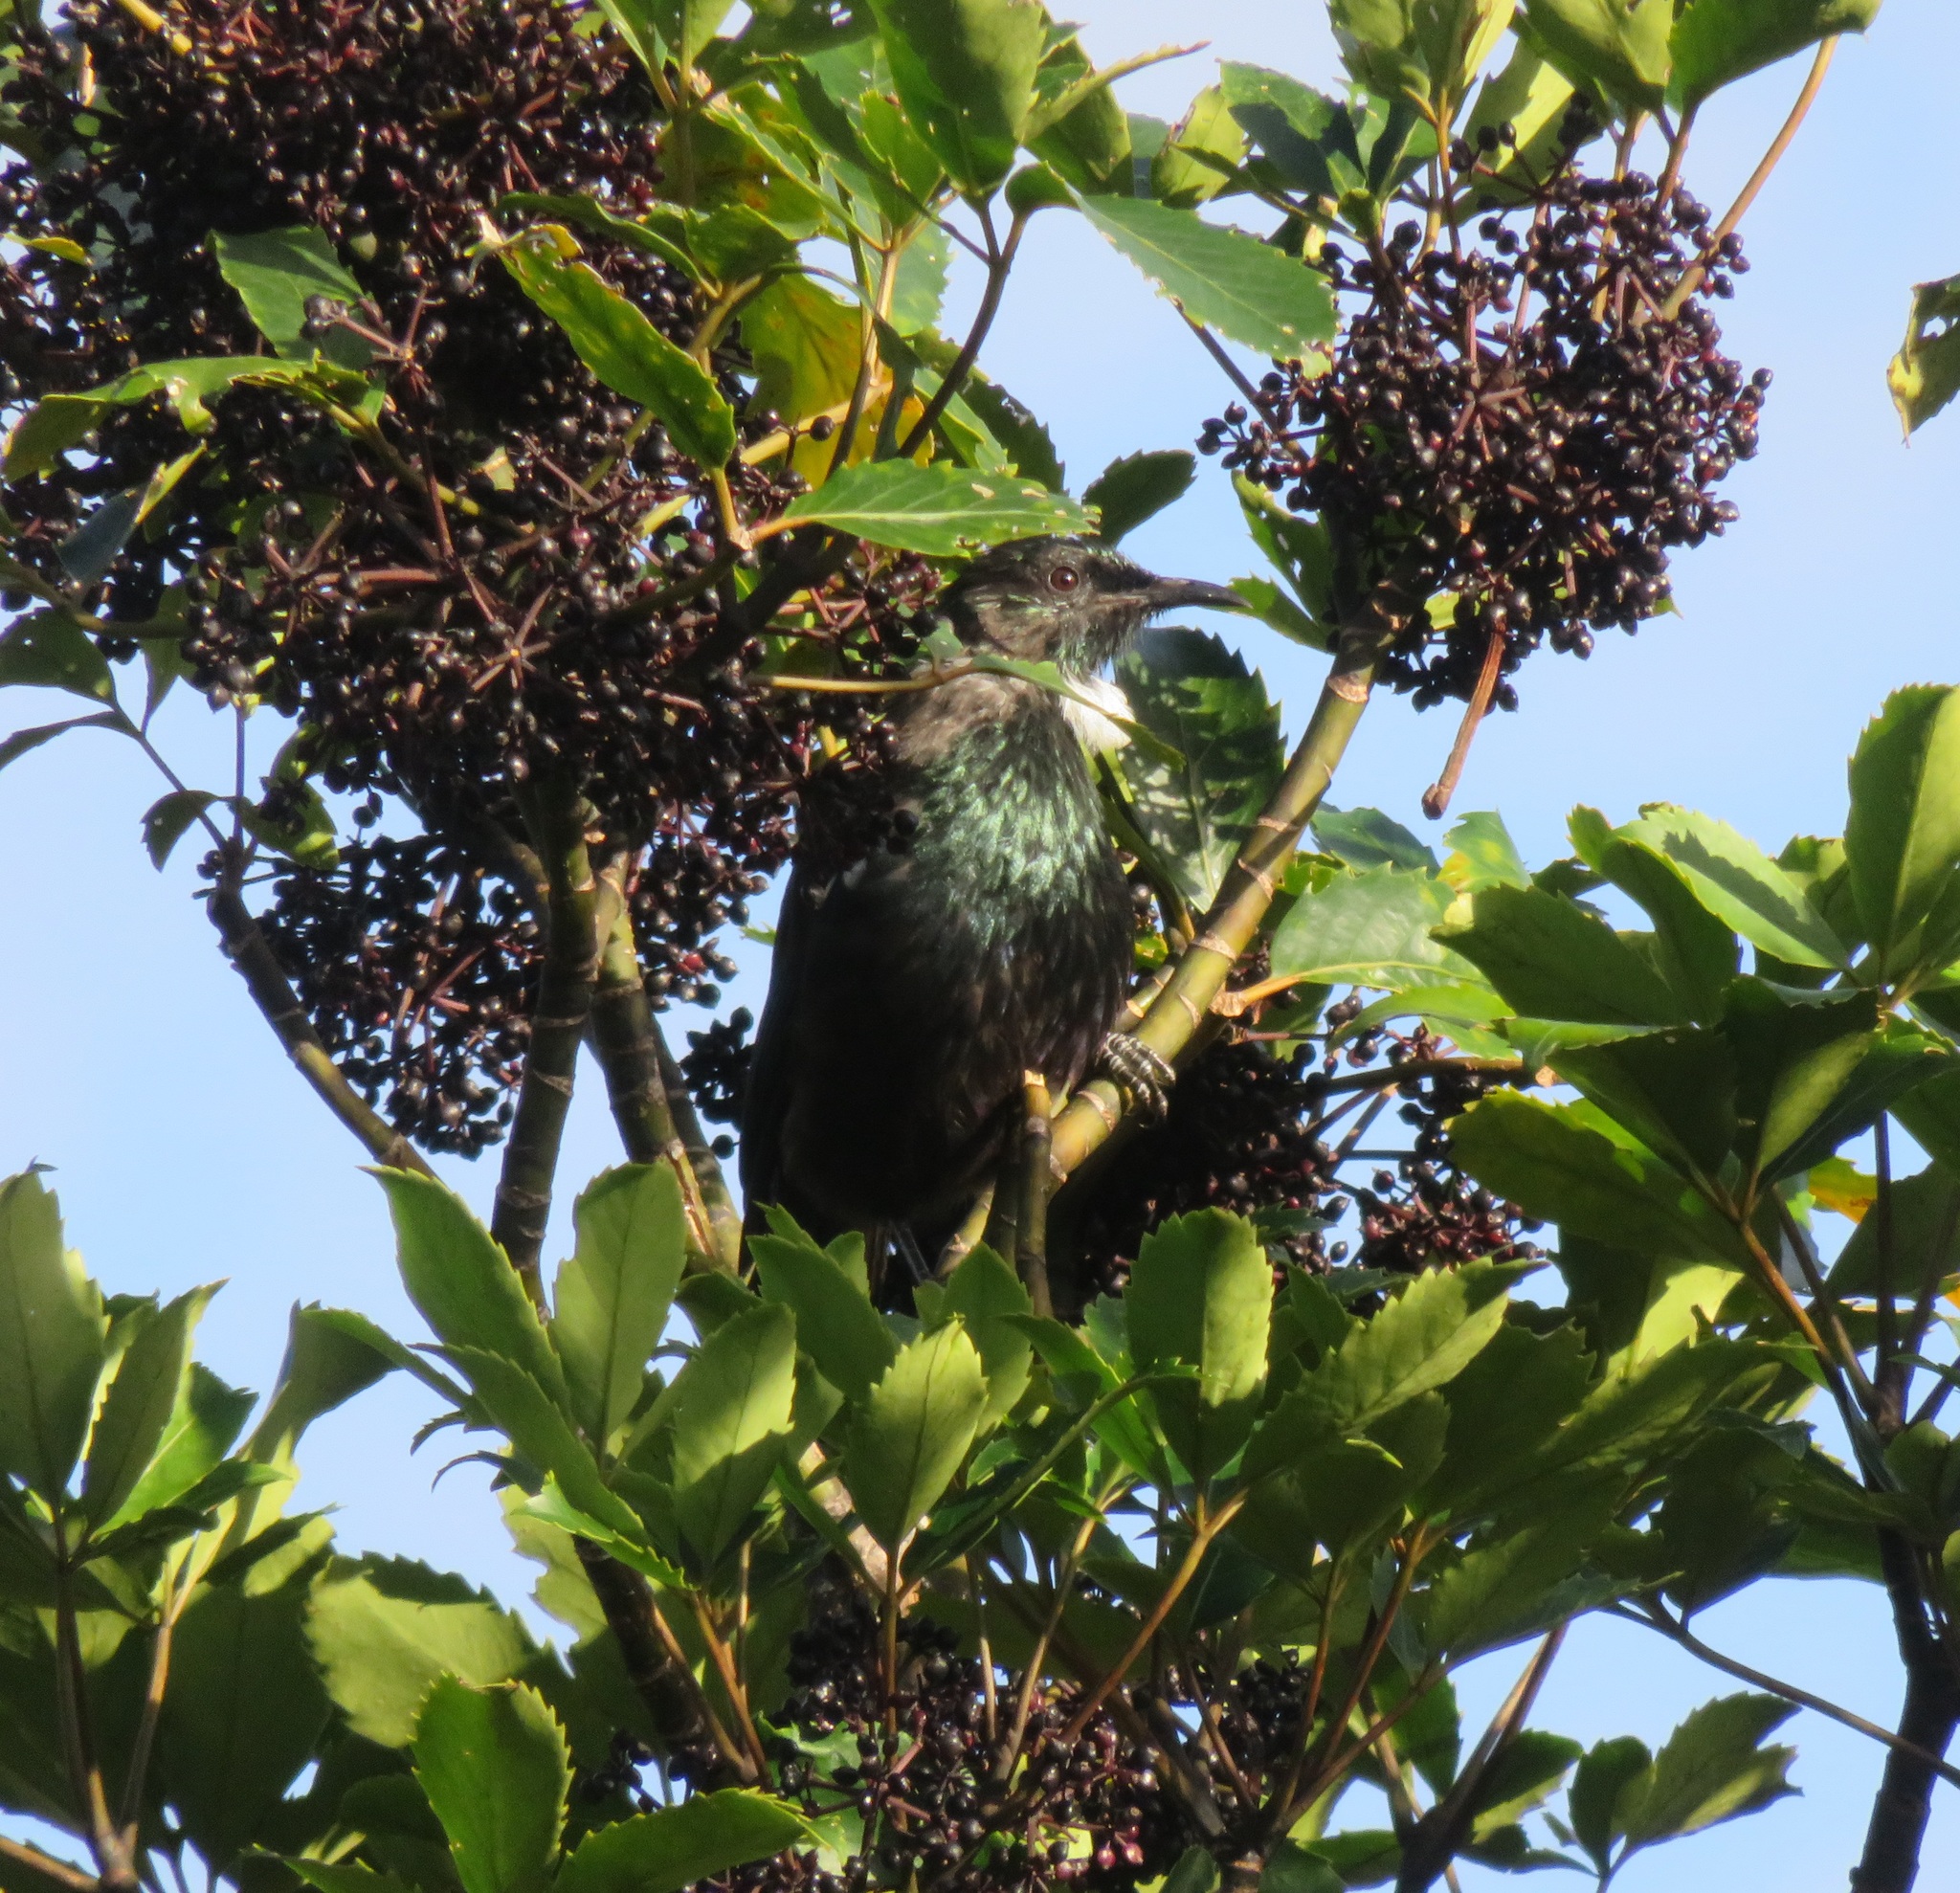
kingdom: Animalia
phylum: Chordata
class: Aves
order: Passeriformes
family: Meliphagidae
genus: Prosthemadera
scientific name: Prosthemadera novaeseelandiae
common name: Tui
